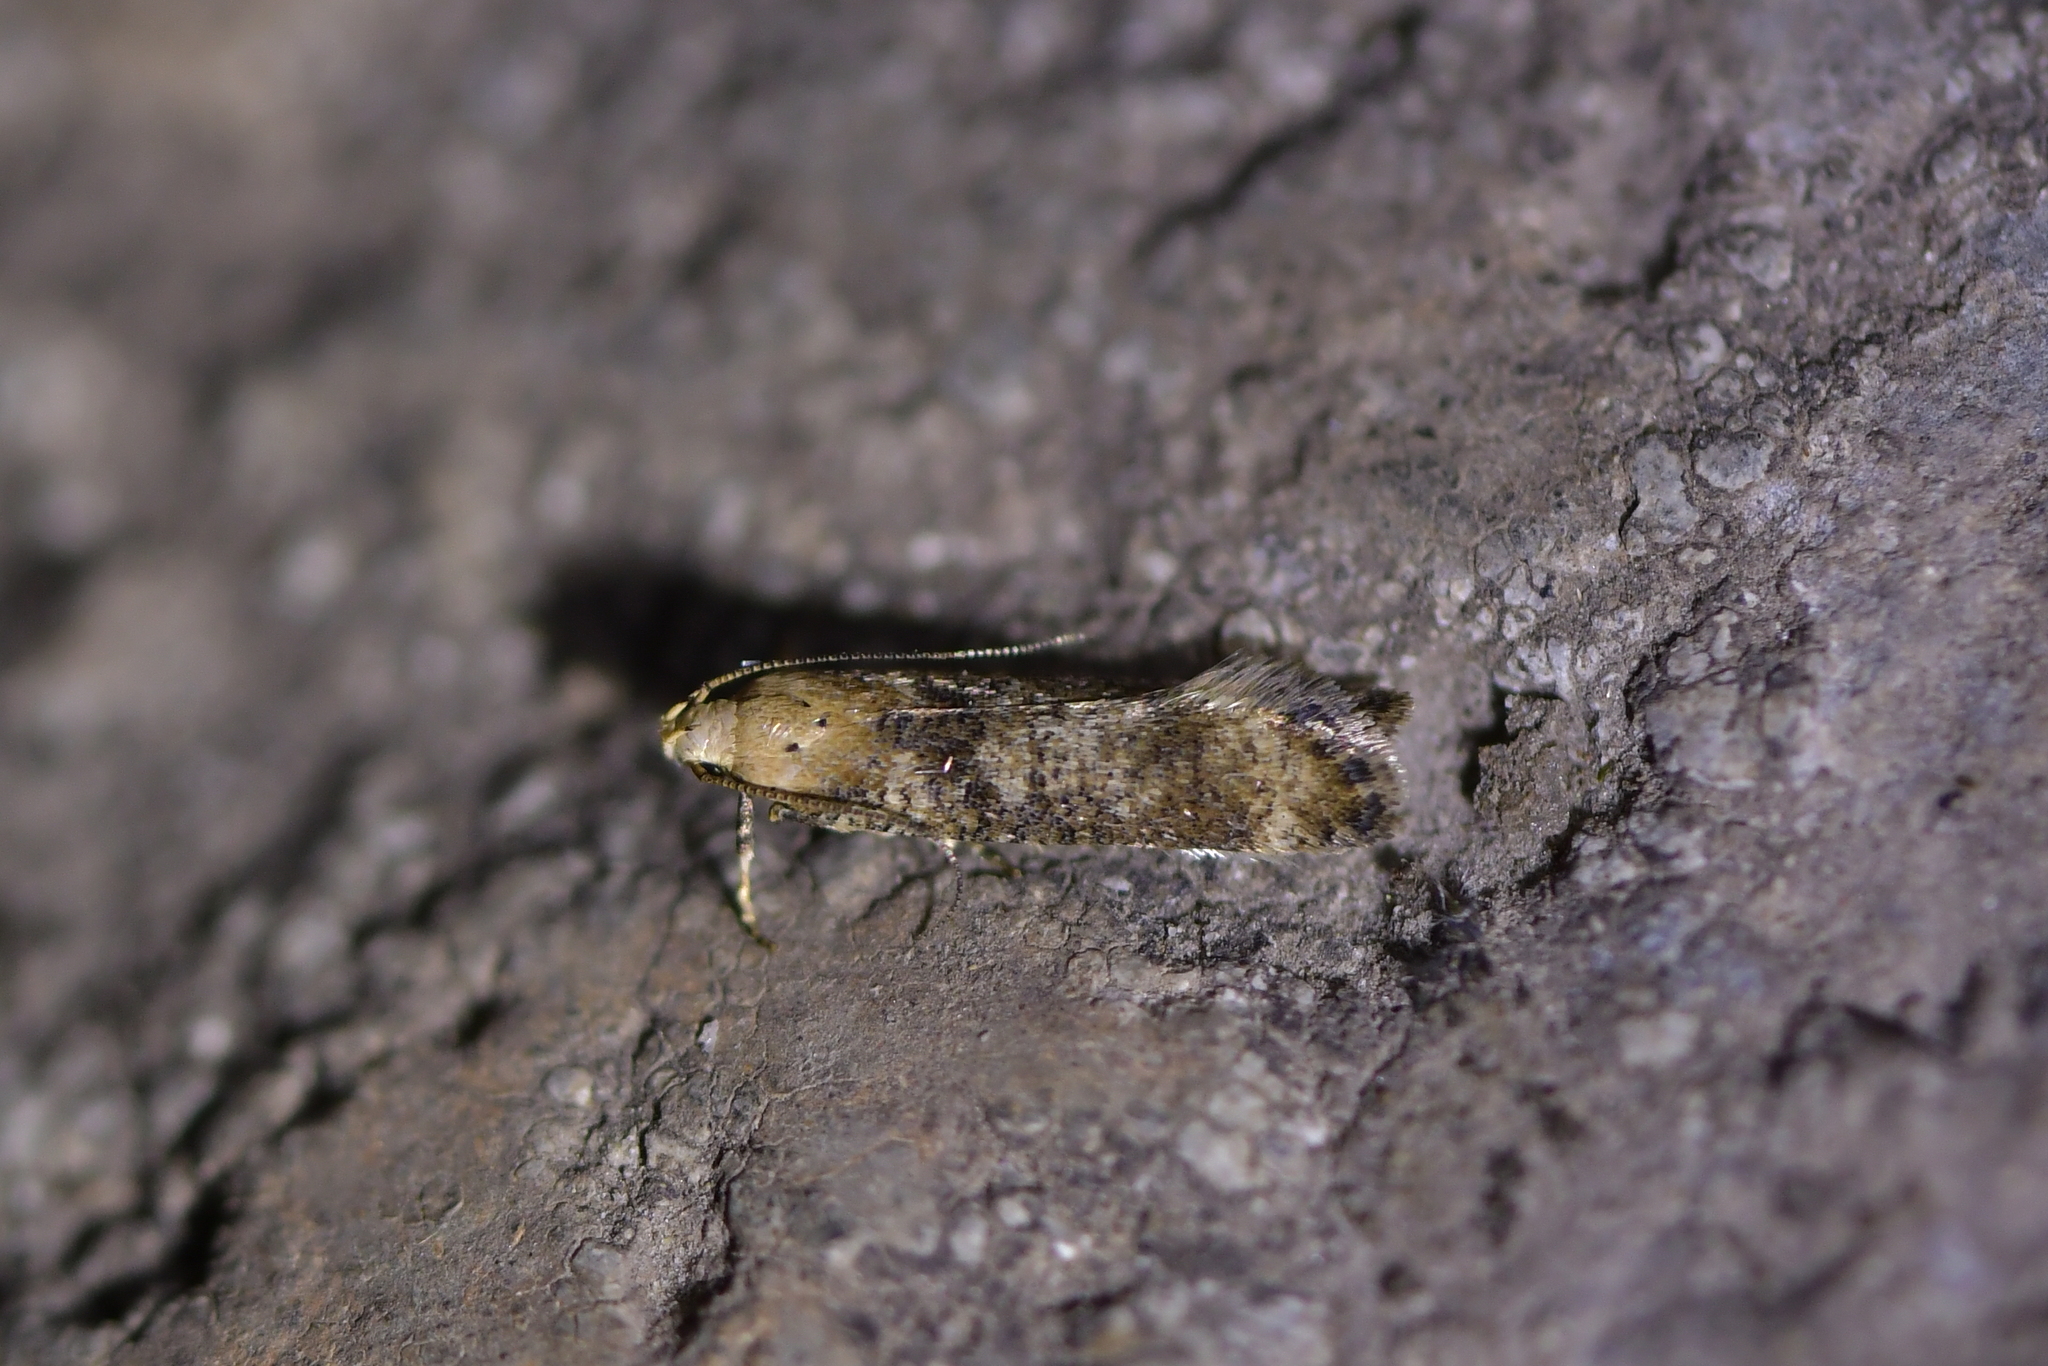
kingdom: Animalia
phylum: Arthropoda
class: Insecta
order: Lepidoptera
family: Gelechiidae
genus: Anisoplaca
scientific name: Anisoplaca acrodactyla
